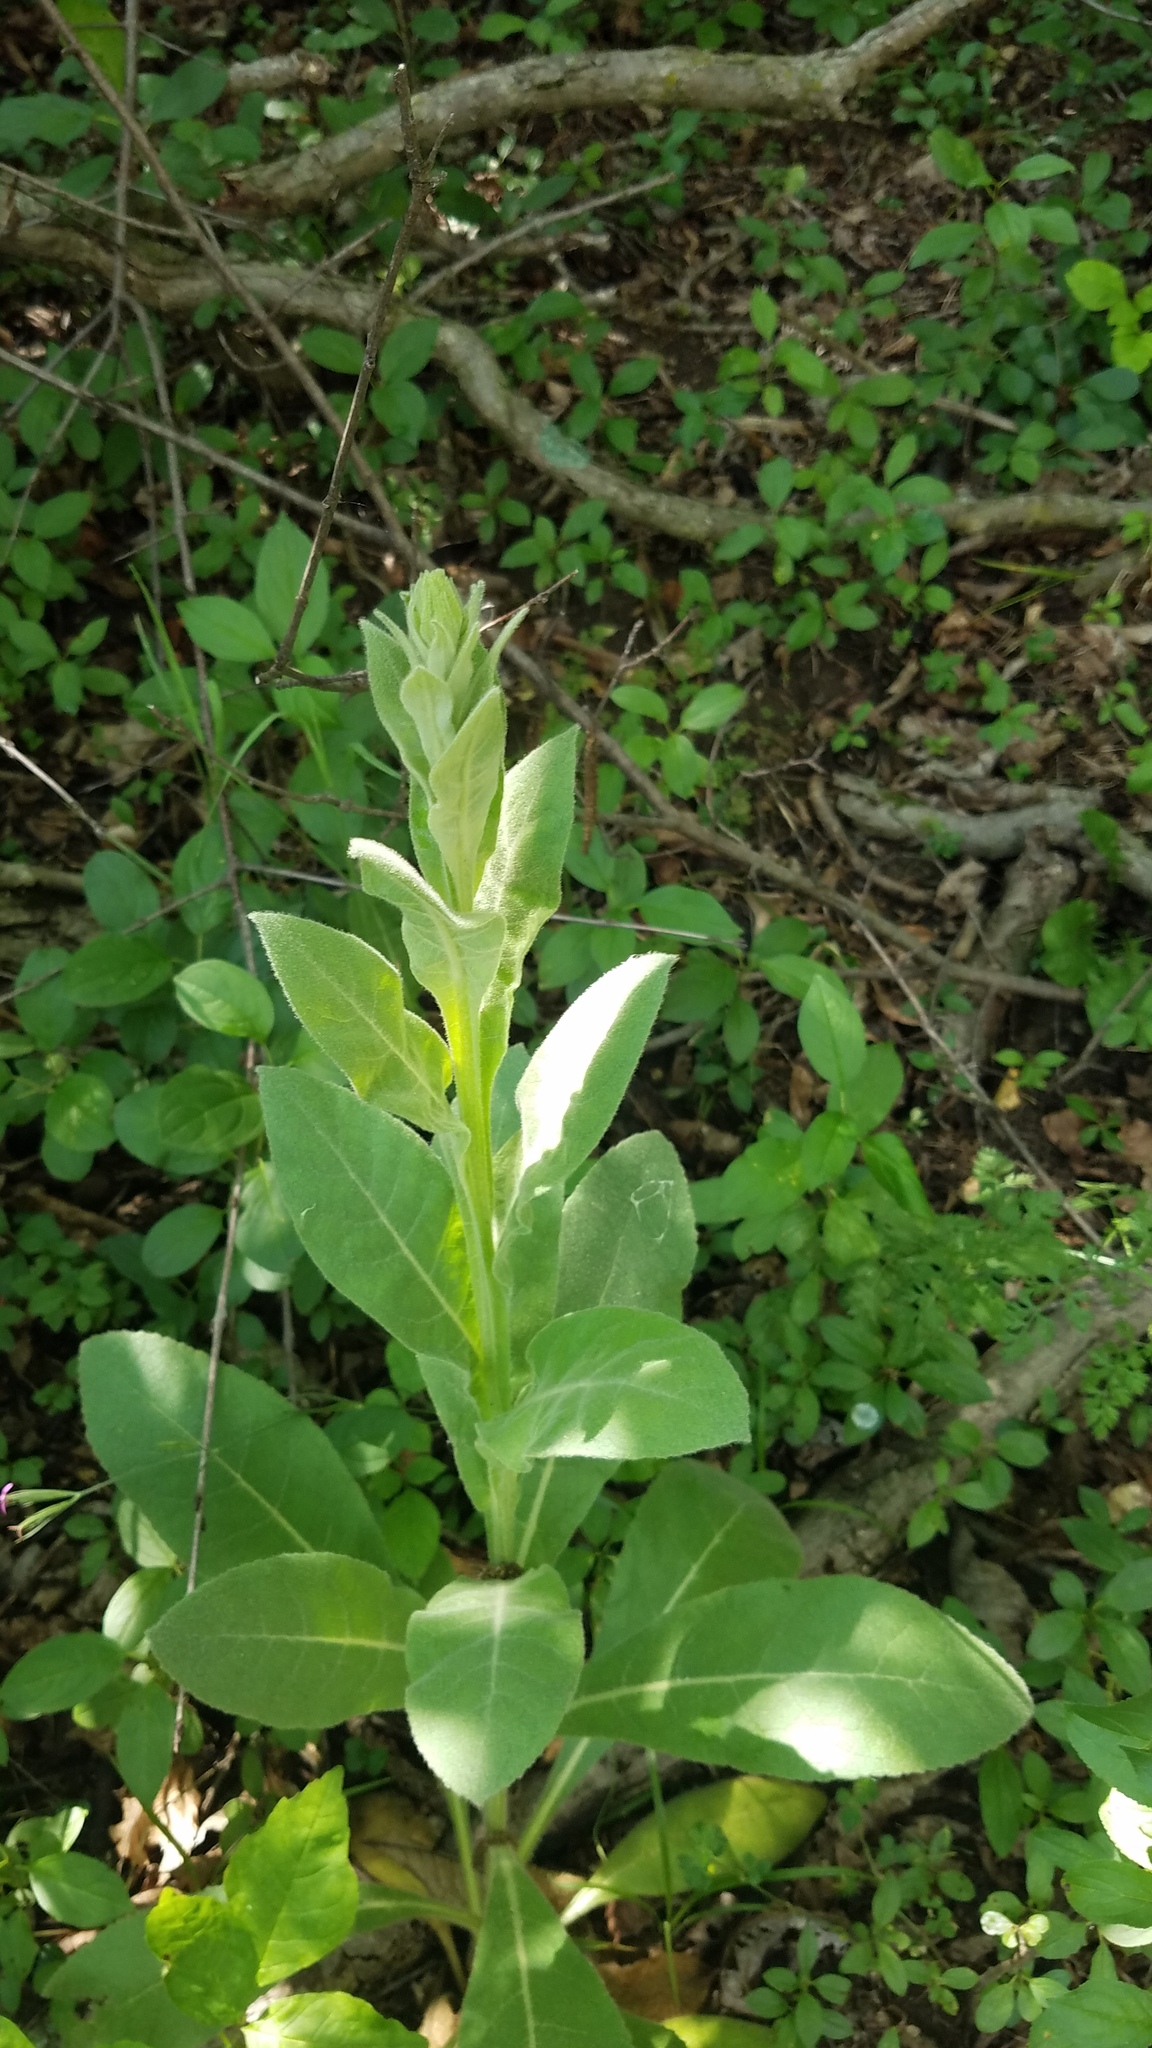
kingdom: Plantae
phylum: Tracheophyta
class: Magnoliopsida
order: Lamiales
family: Scrophulariaceae
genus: Verbascum
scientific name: Verbascum thapsus
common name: Common mullein
